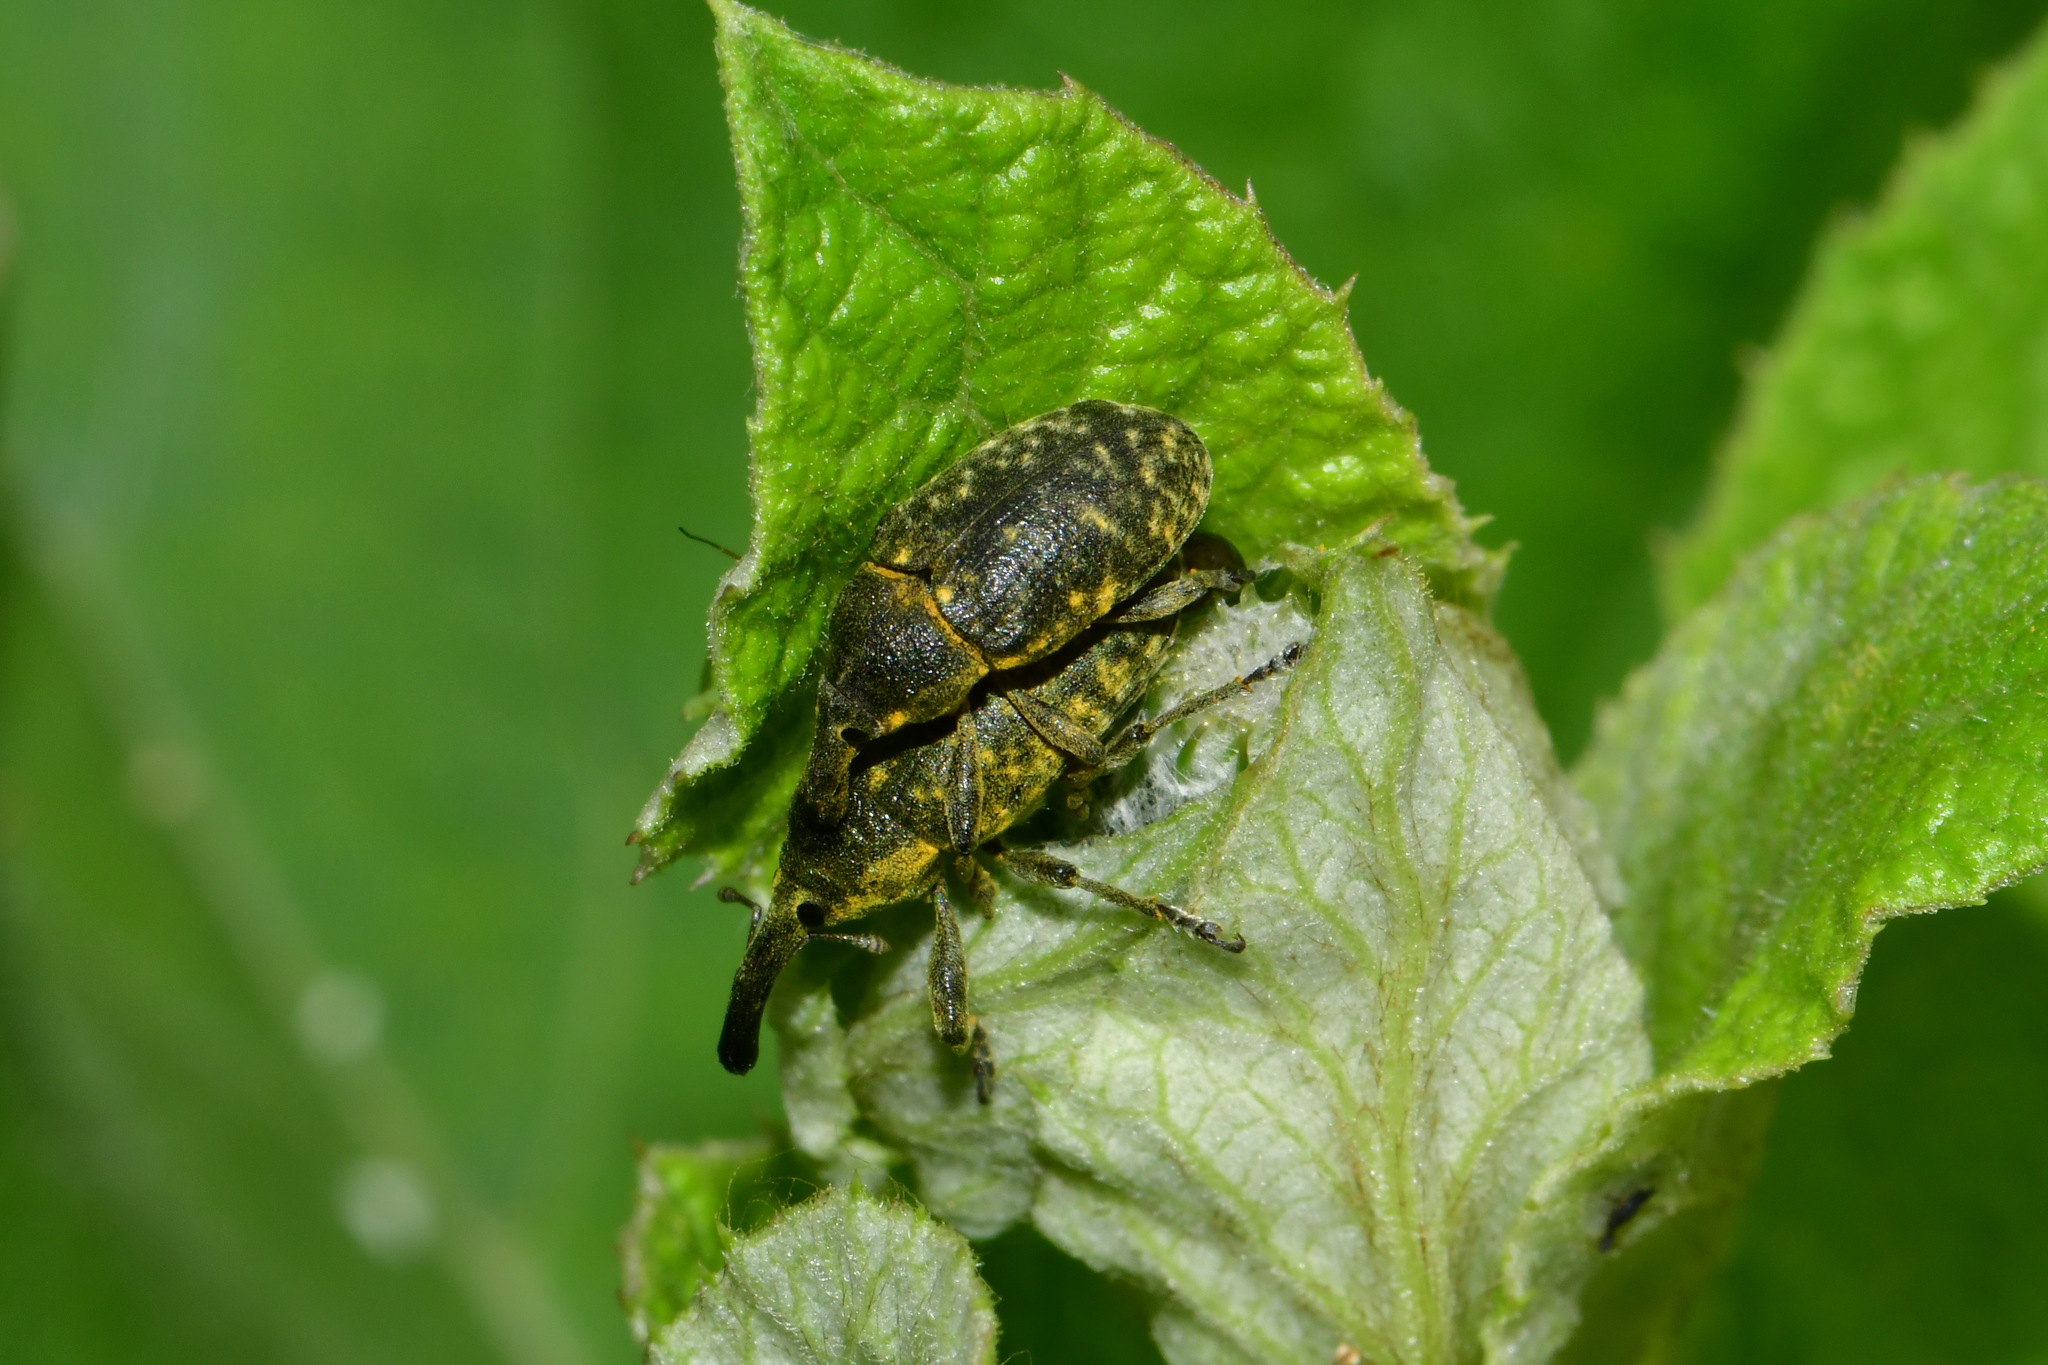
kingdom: Animalia
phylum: Arthropoda
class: Insecta
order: Coleoptera
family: Curculionidae
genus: Larinus
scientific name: Larinus sturnus
